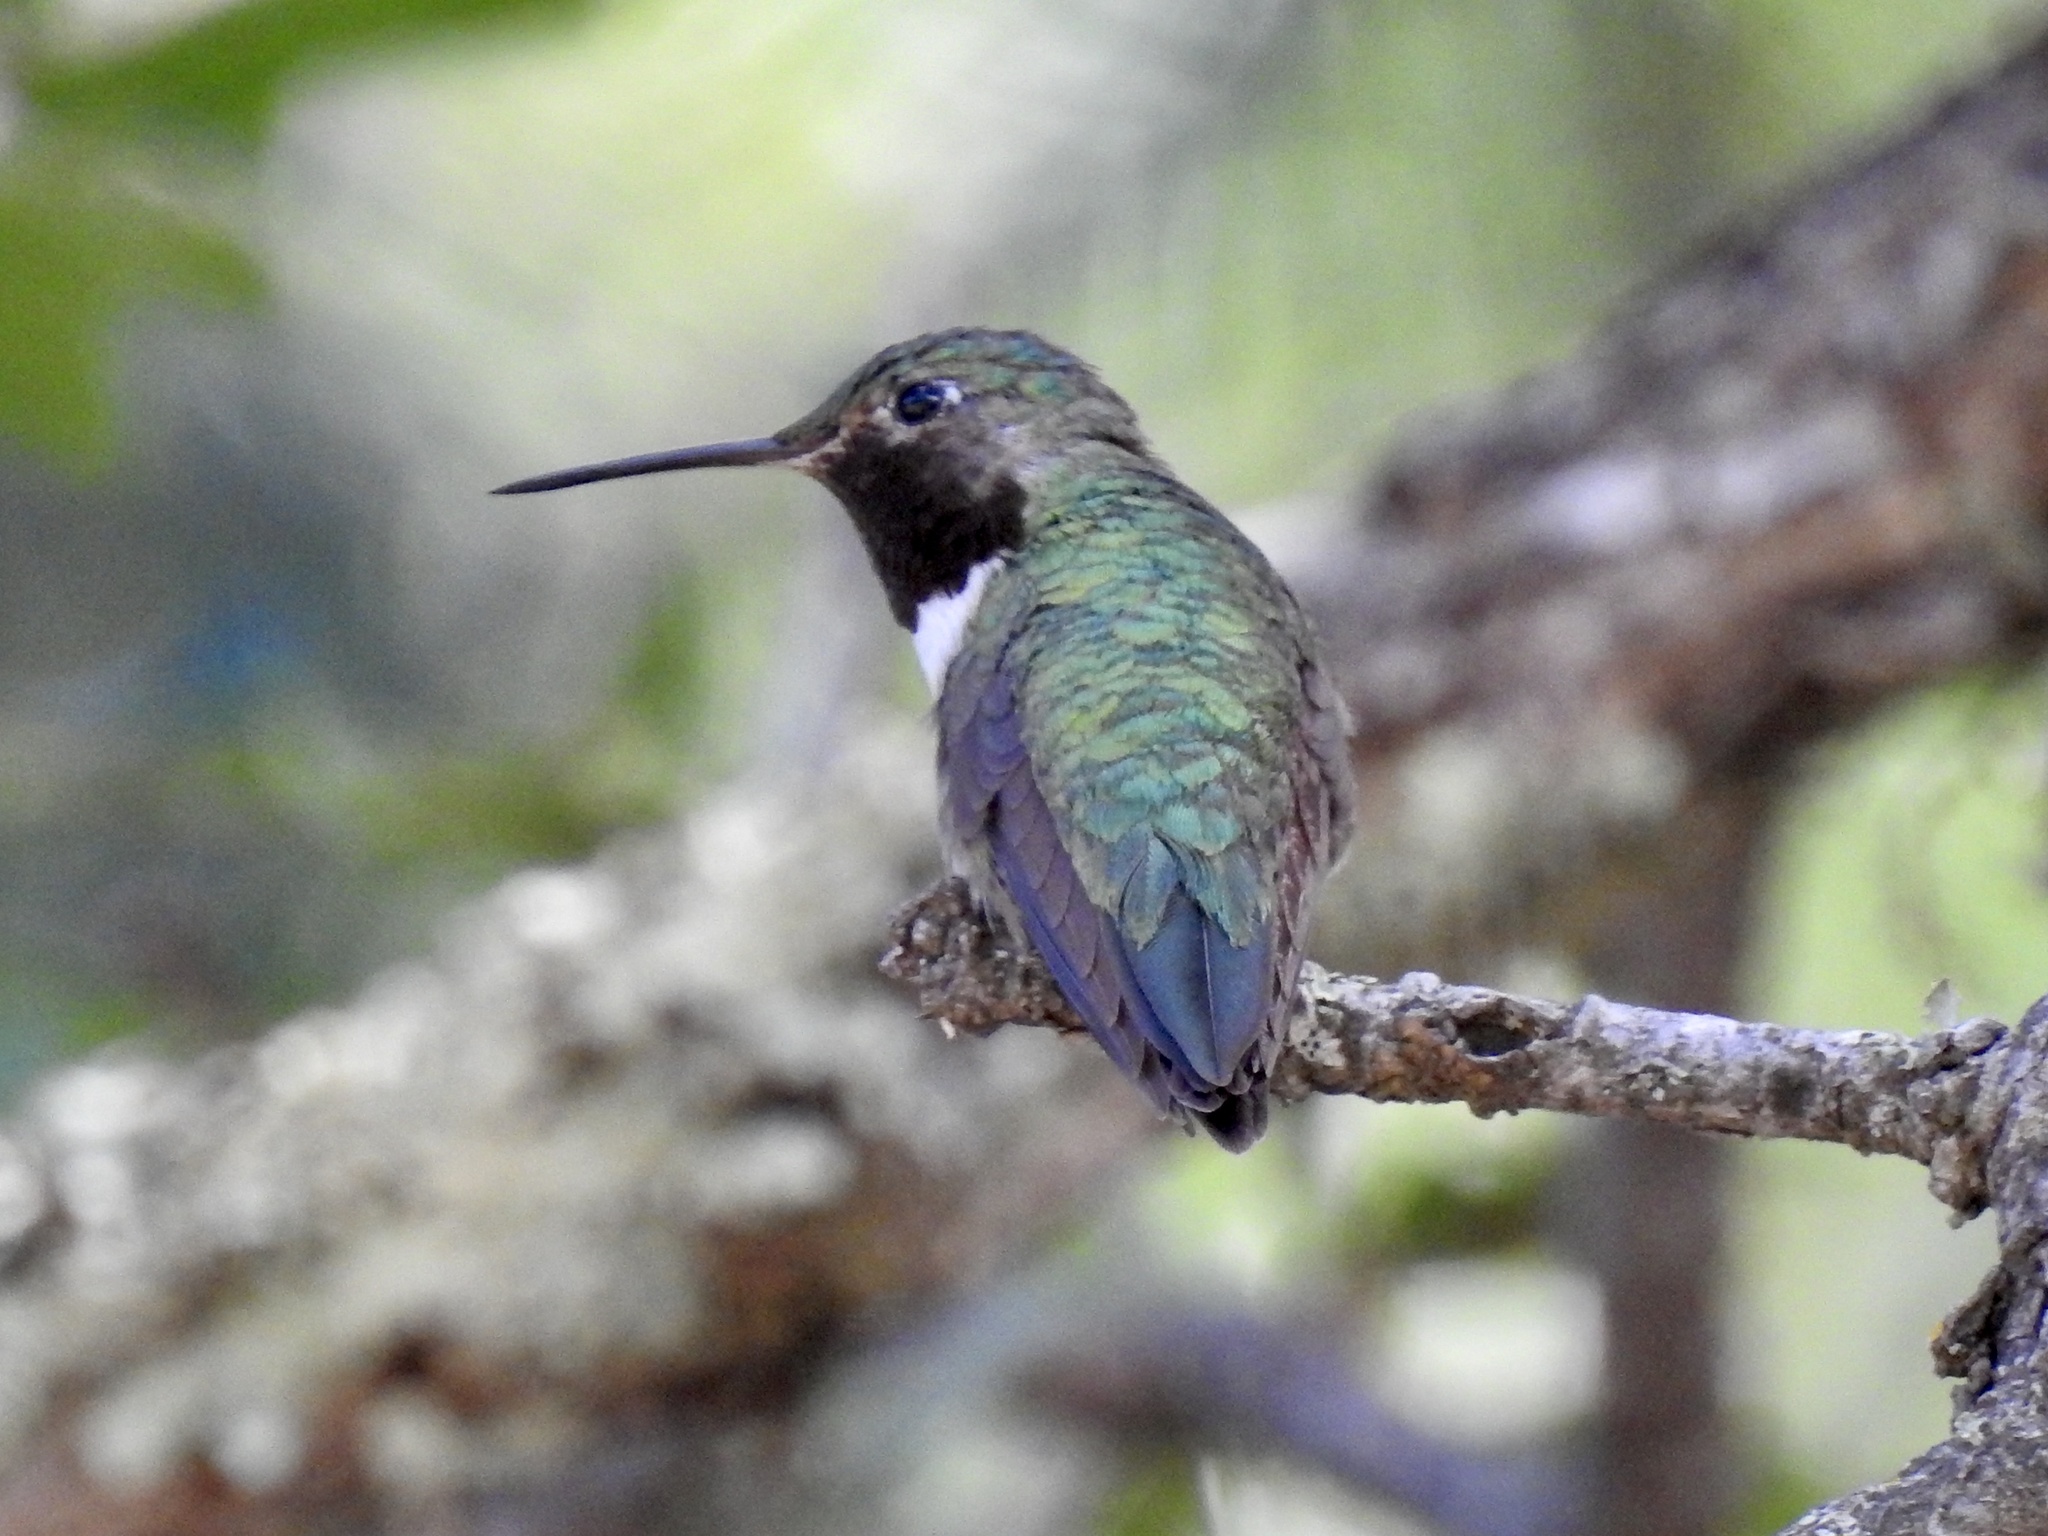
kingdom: Animalia
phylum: Chordata
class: Aves
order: Apodiformes
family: Trochilidae
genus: Selasphorus
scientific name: Selasphorus platycercus
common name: Broad-tailed hummingbird
